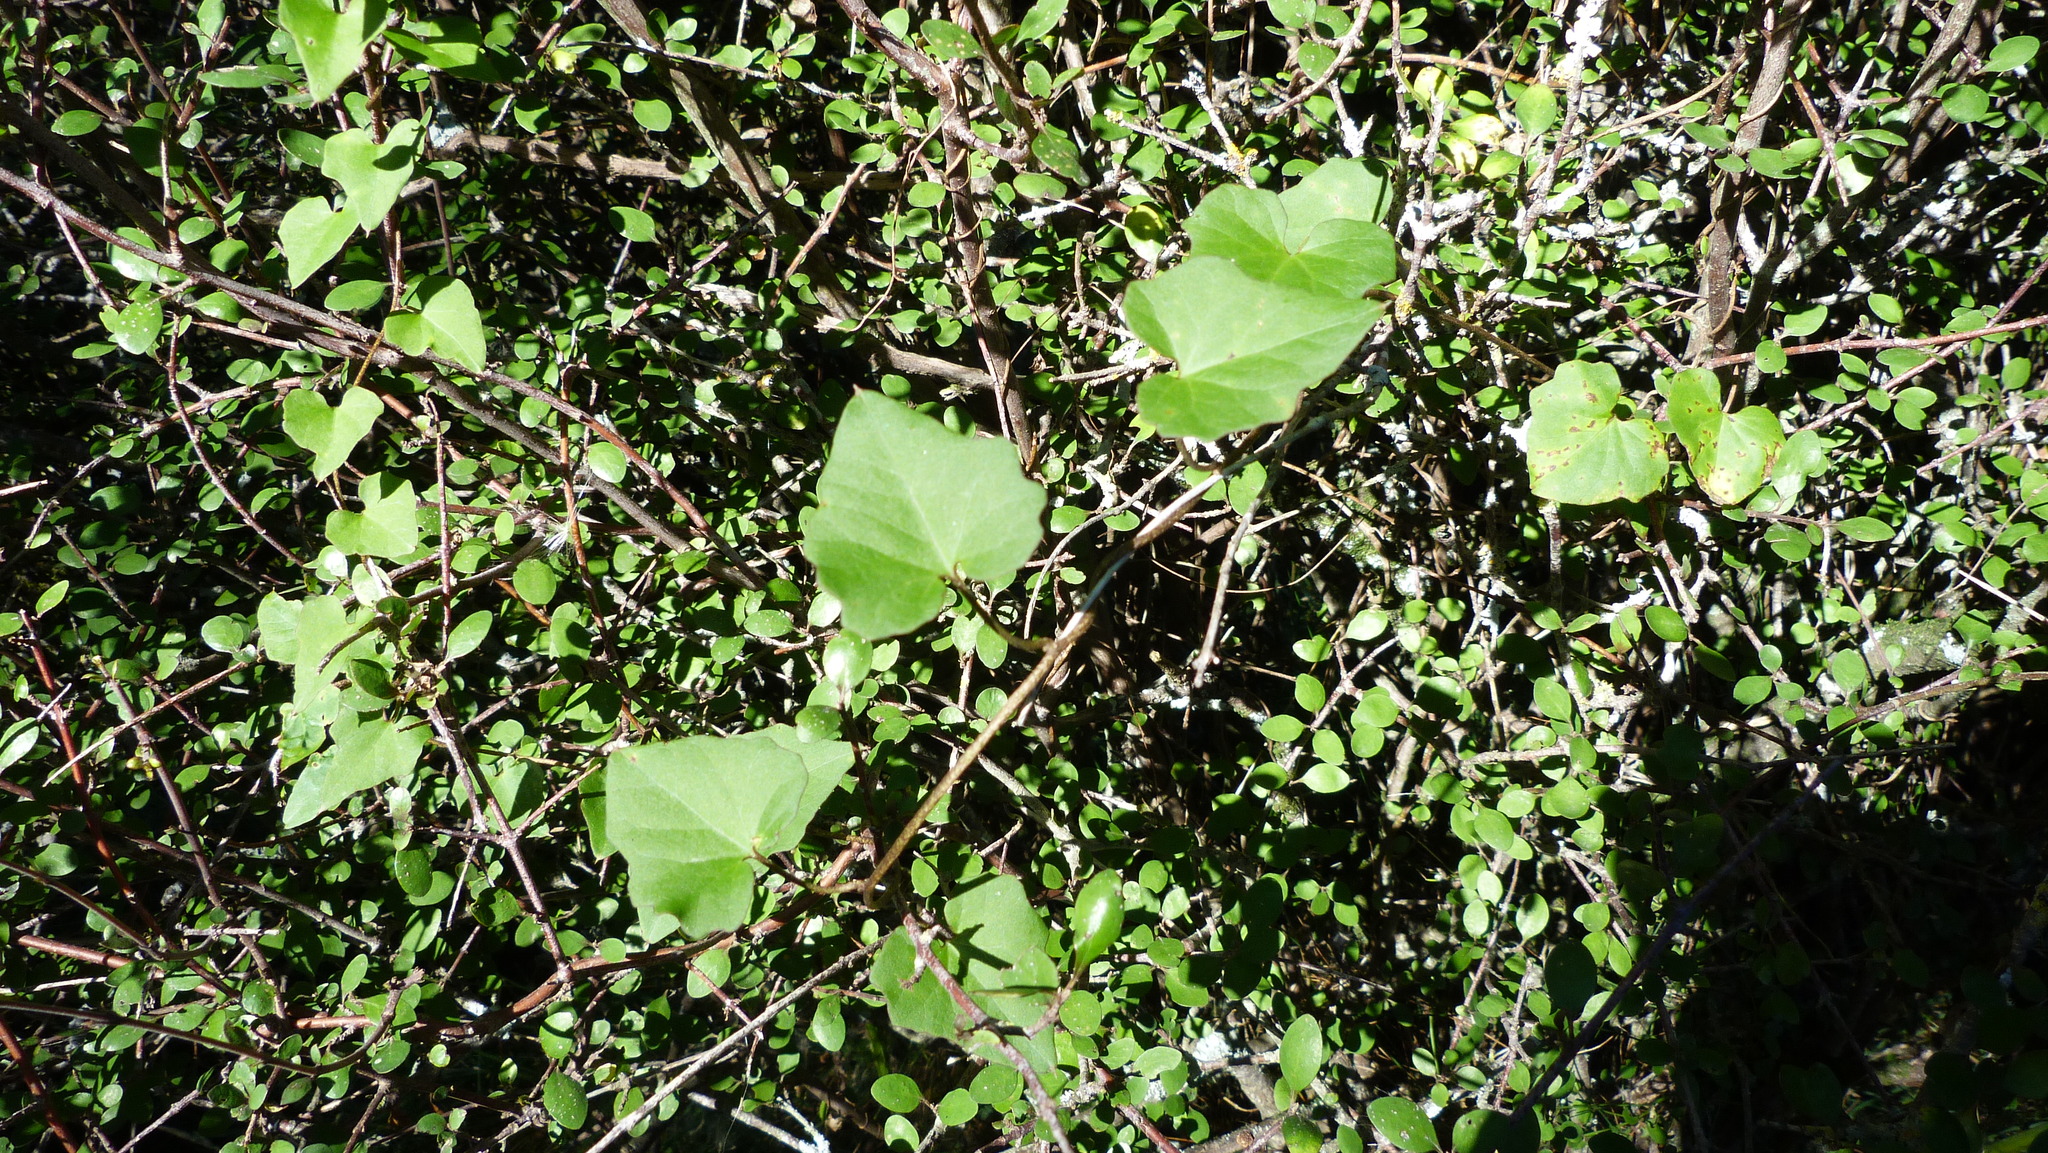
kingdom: Plantae
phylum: Tracheophyta
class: Magnoliopsida
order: Solanales
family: Convolvulaceae
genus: Calystegia
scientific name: Calystegia tuguriorum
